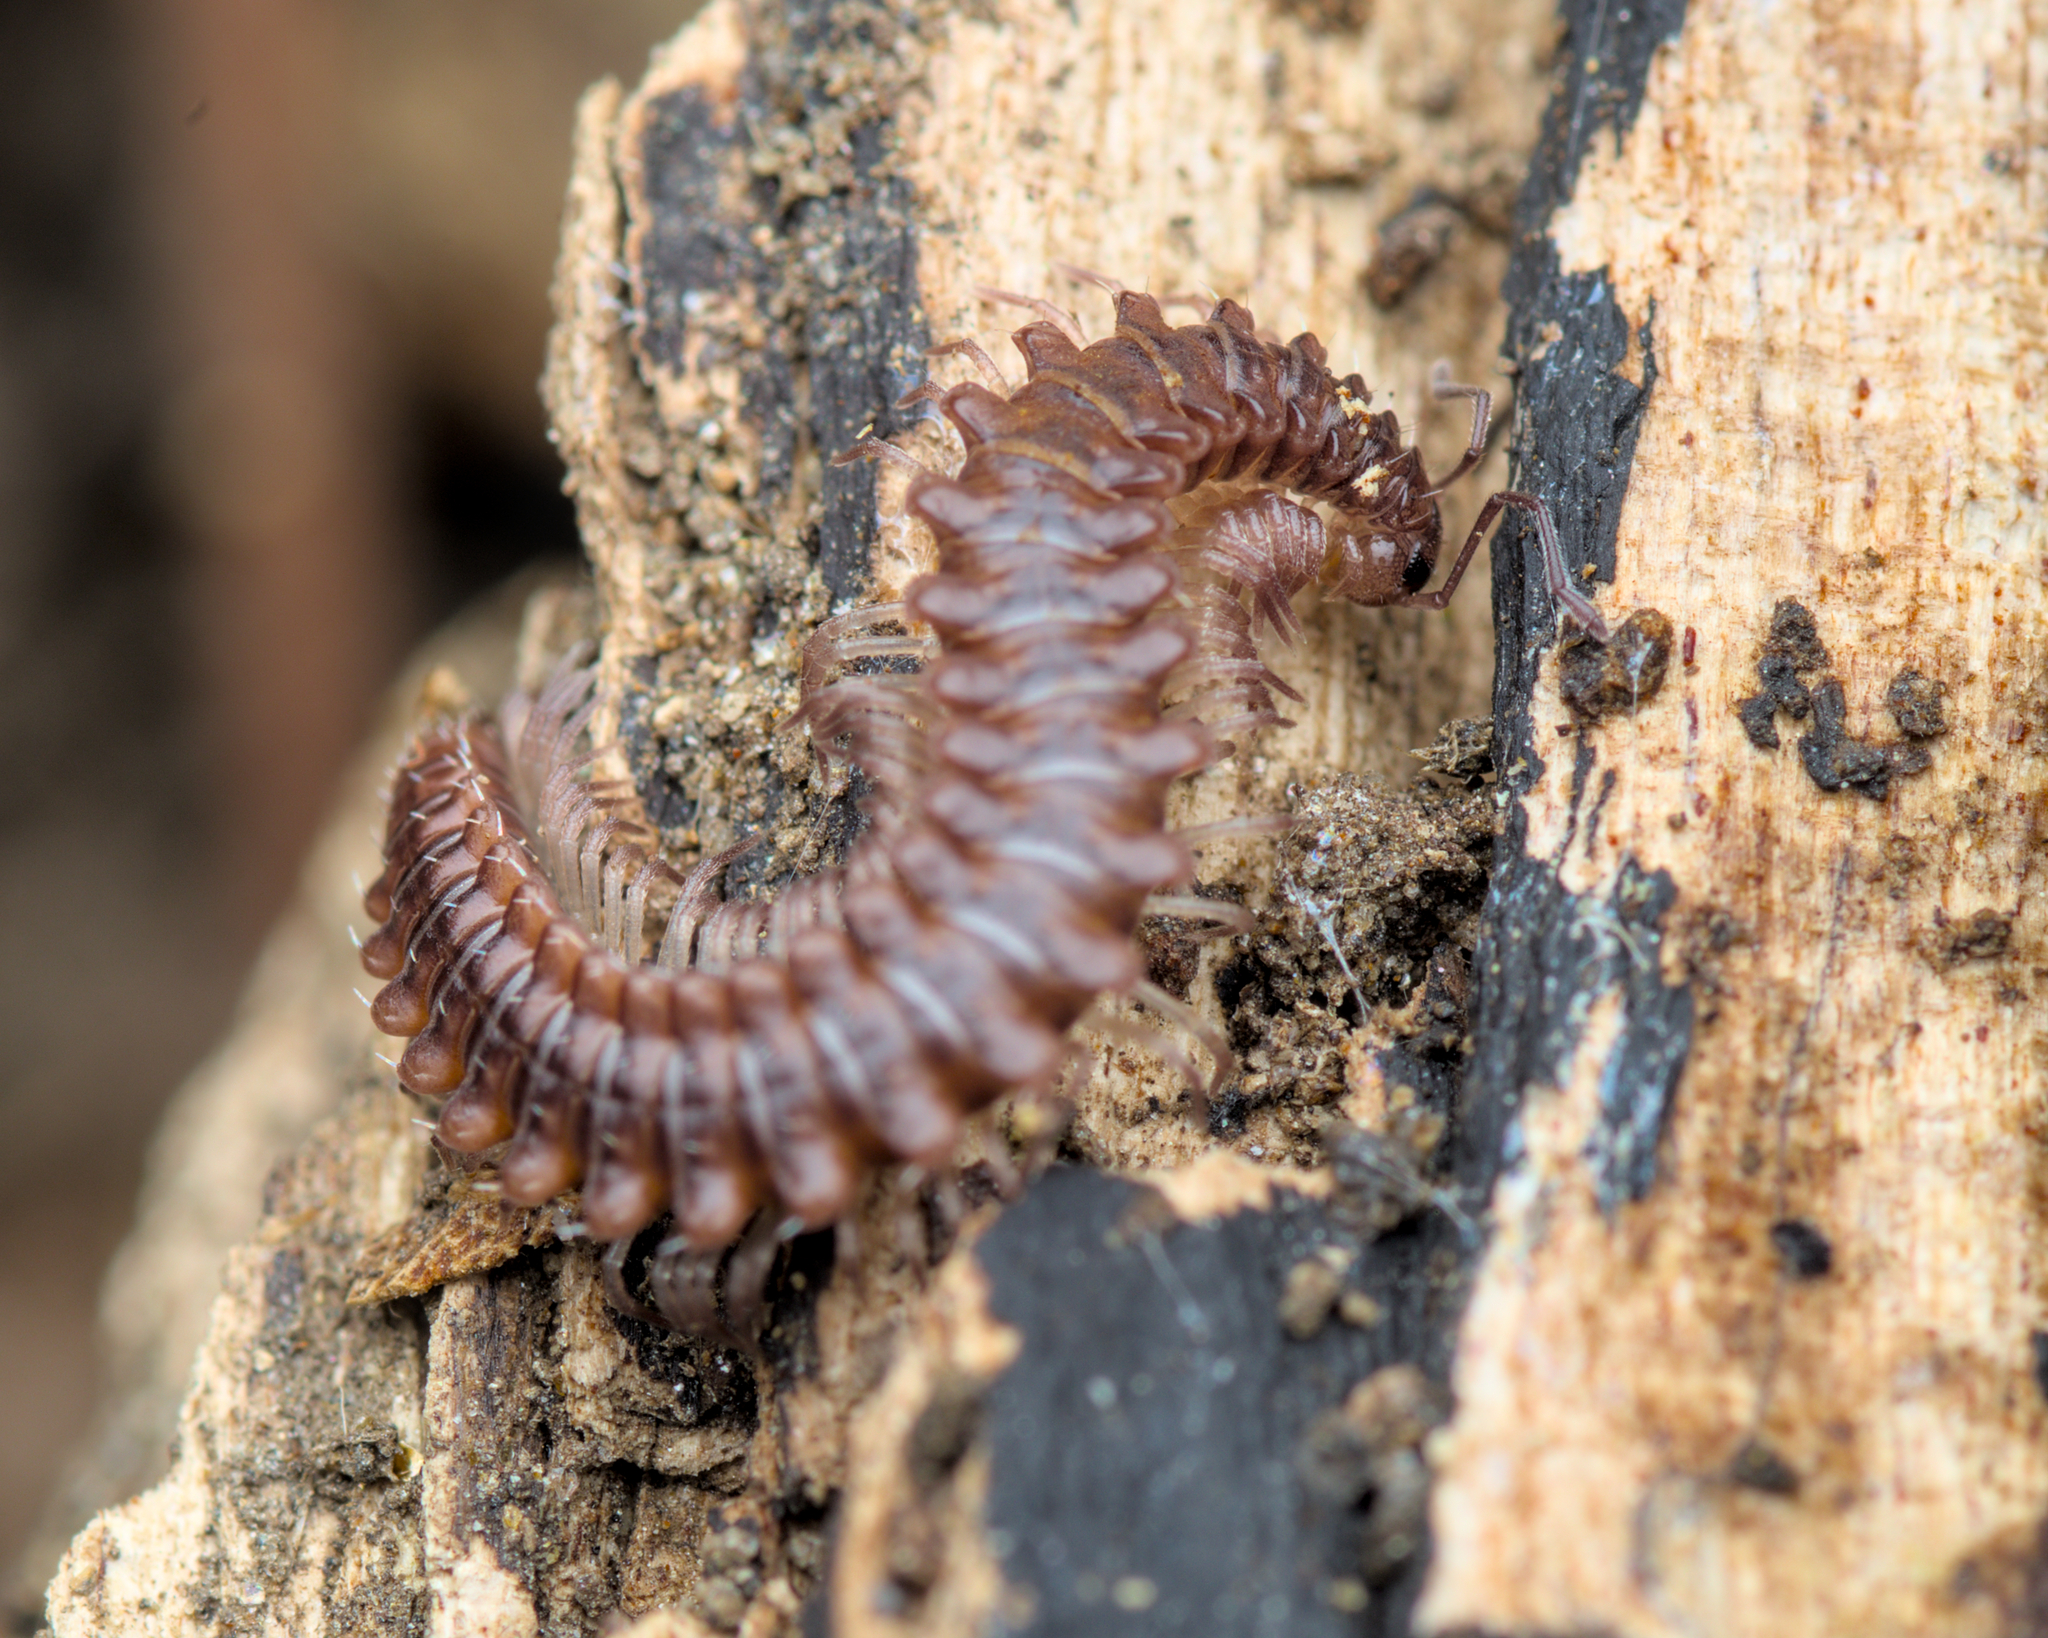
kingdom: Animalia
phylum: Arthropoda
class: Diplopoda
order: Chordeumatida
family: Craspedosomatidae
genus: Nanogona
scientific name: Nanogona polydesmoides
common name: Eyed flat-backed millipede
